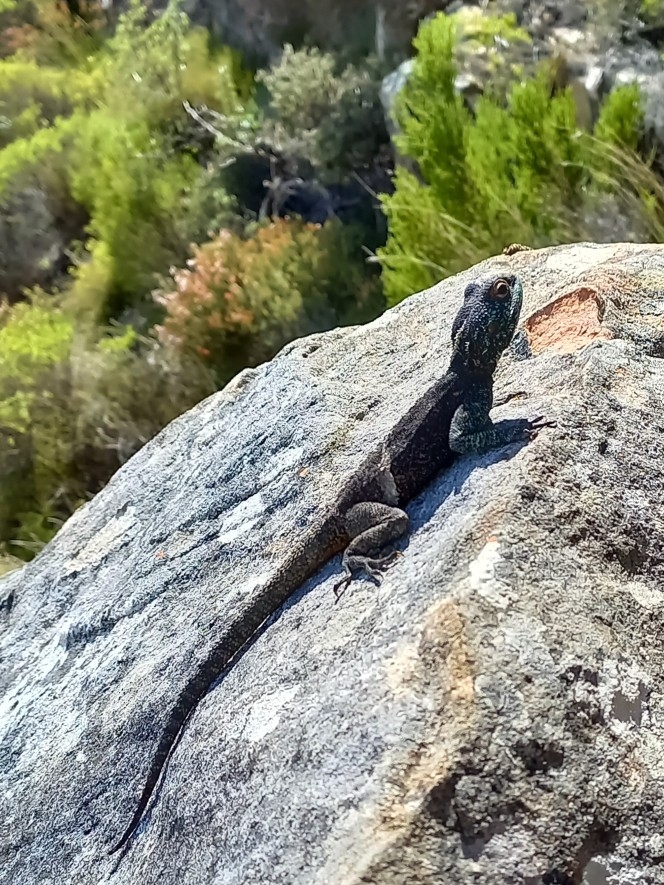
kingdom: Animalia
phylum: Chordata
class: Squamata
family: Agamidae
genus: Agama
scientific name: Agama atra
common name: Southern african rock agama
